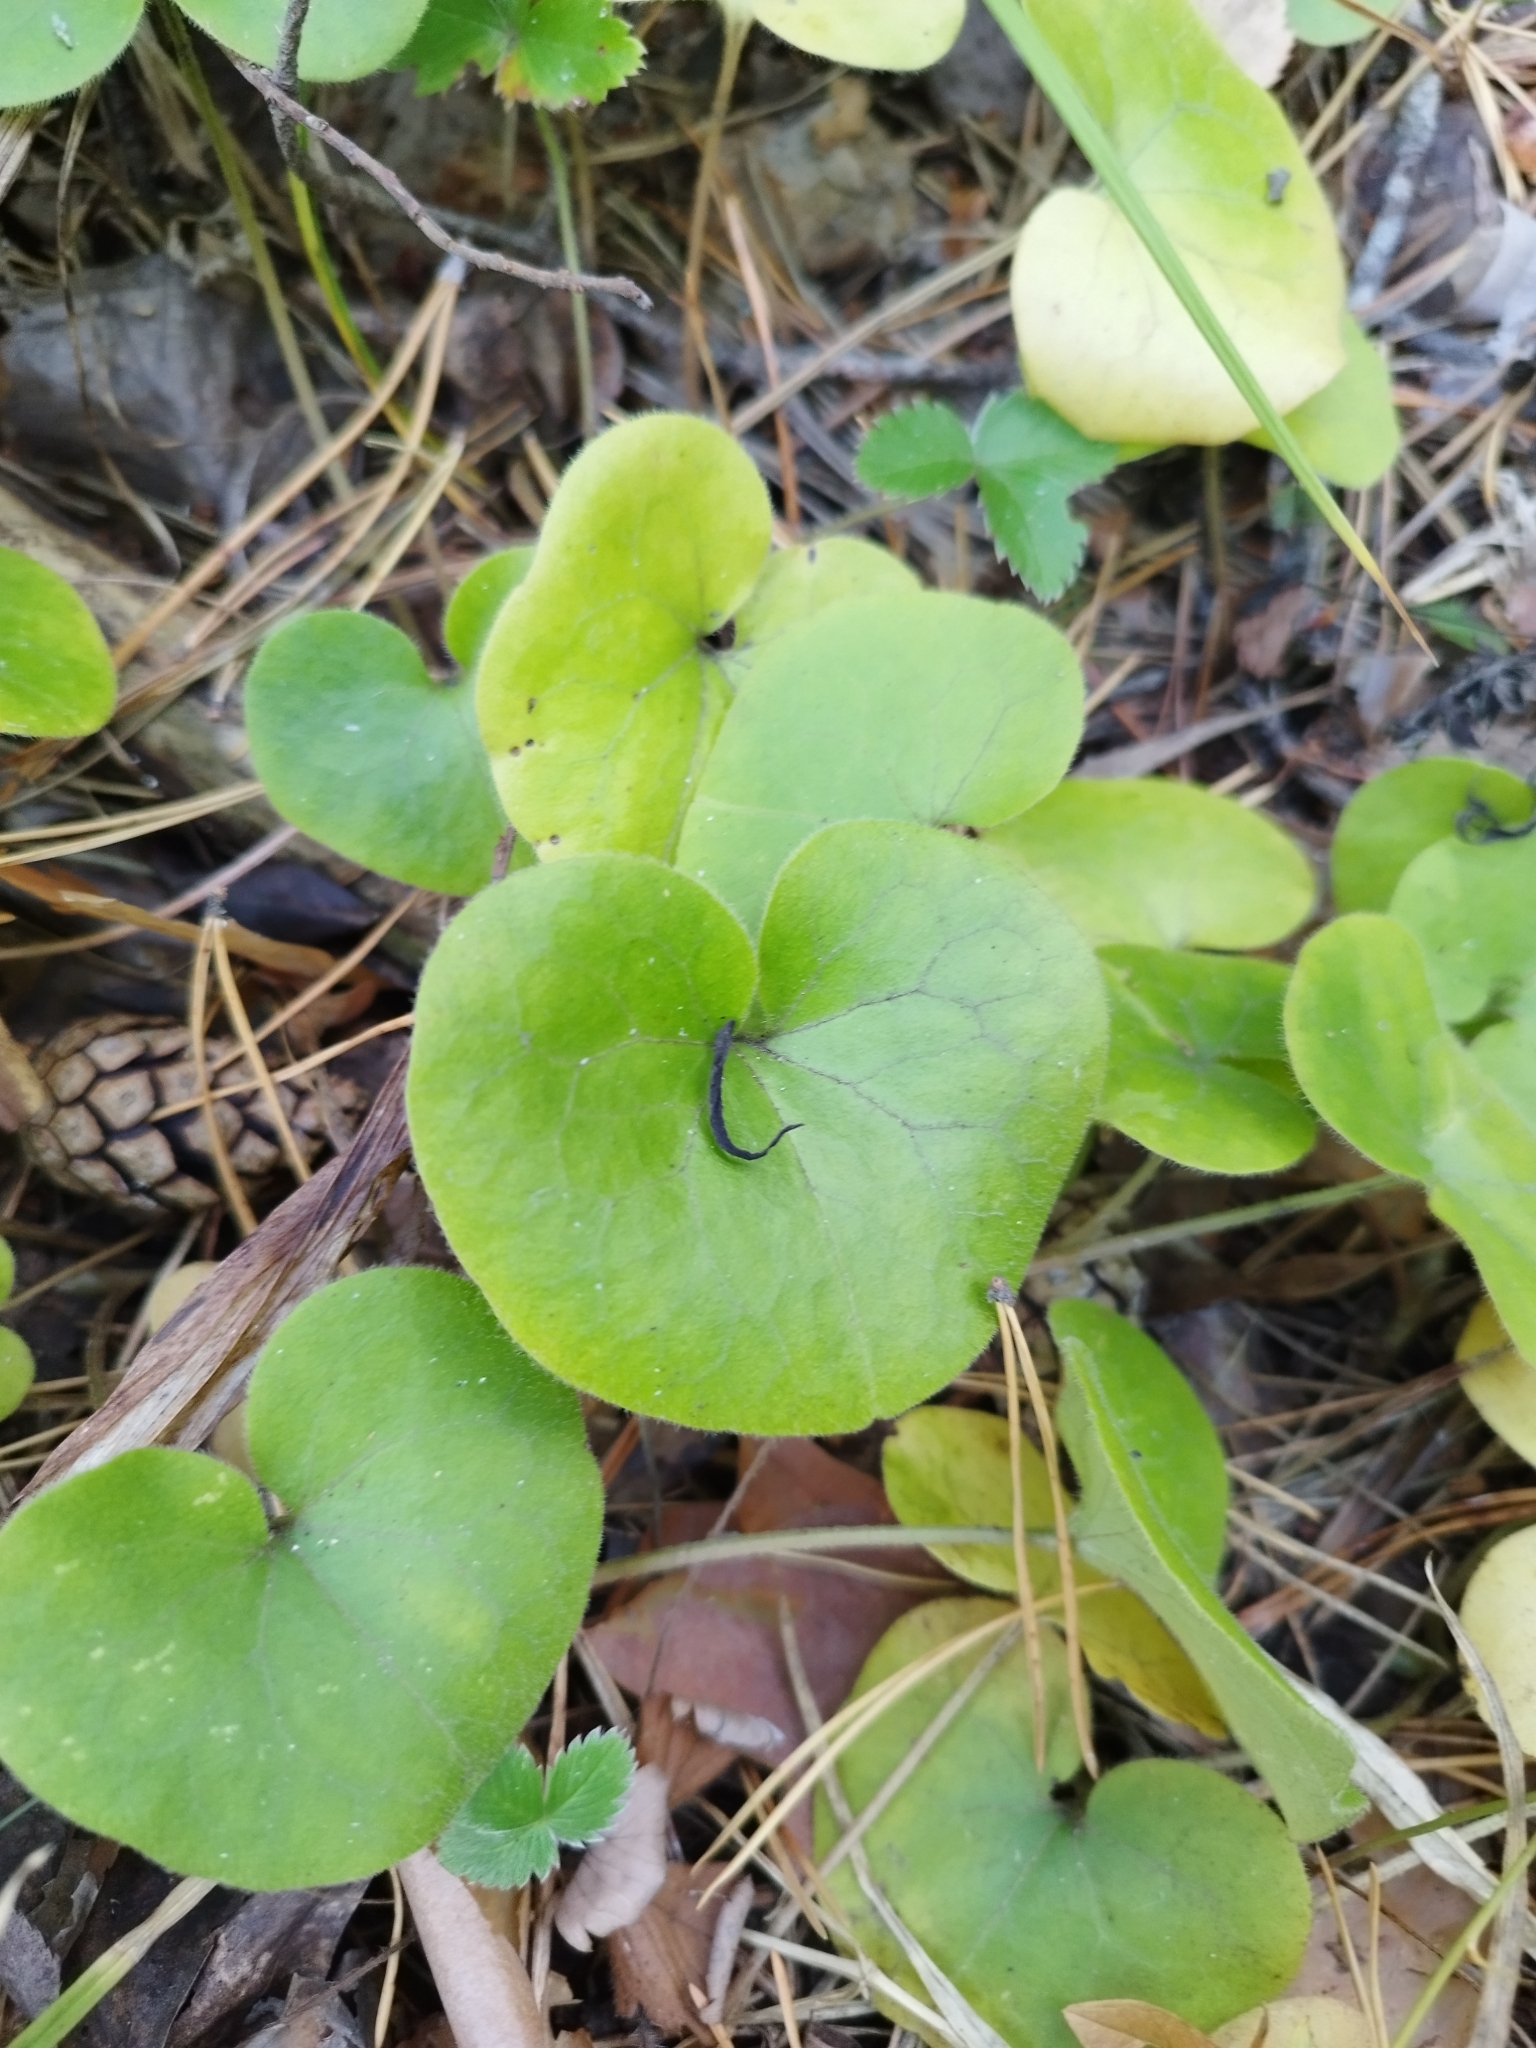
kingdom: Plantae
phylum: Tracheophyta
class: Magnoliopsida
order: Piperales
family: Aristolochiaceae
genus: Asarum
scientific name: Asarum europaeum
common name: Asarabacca
